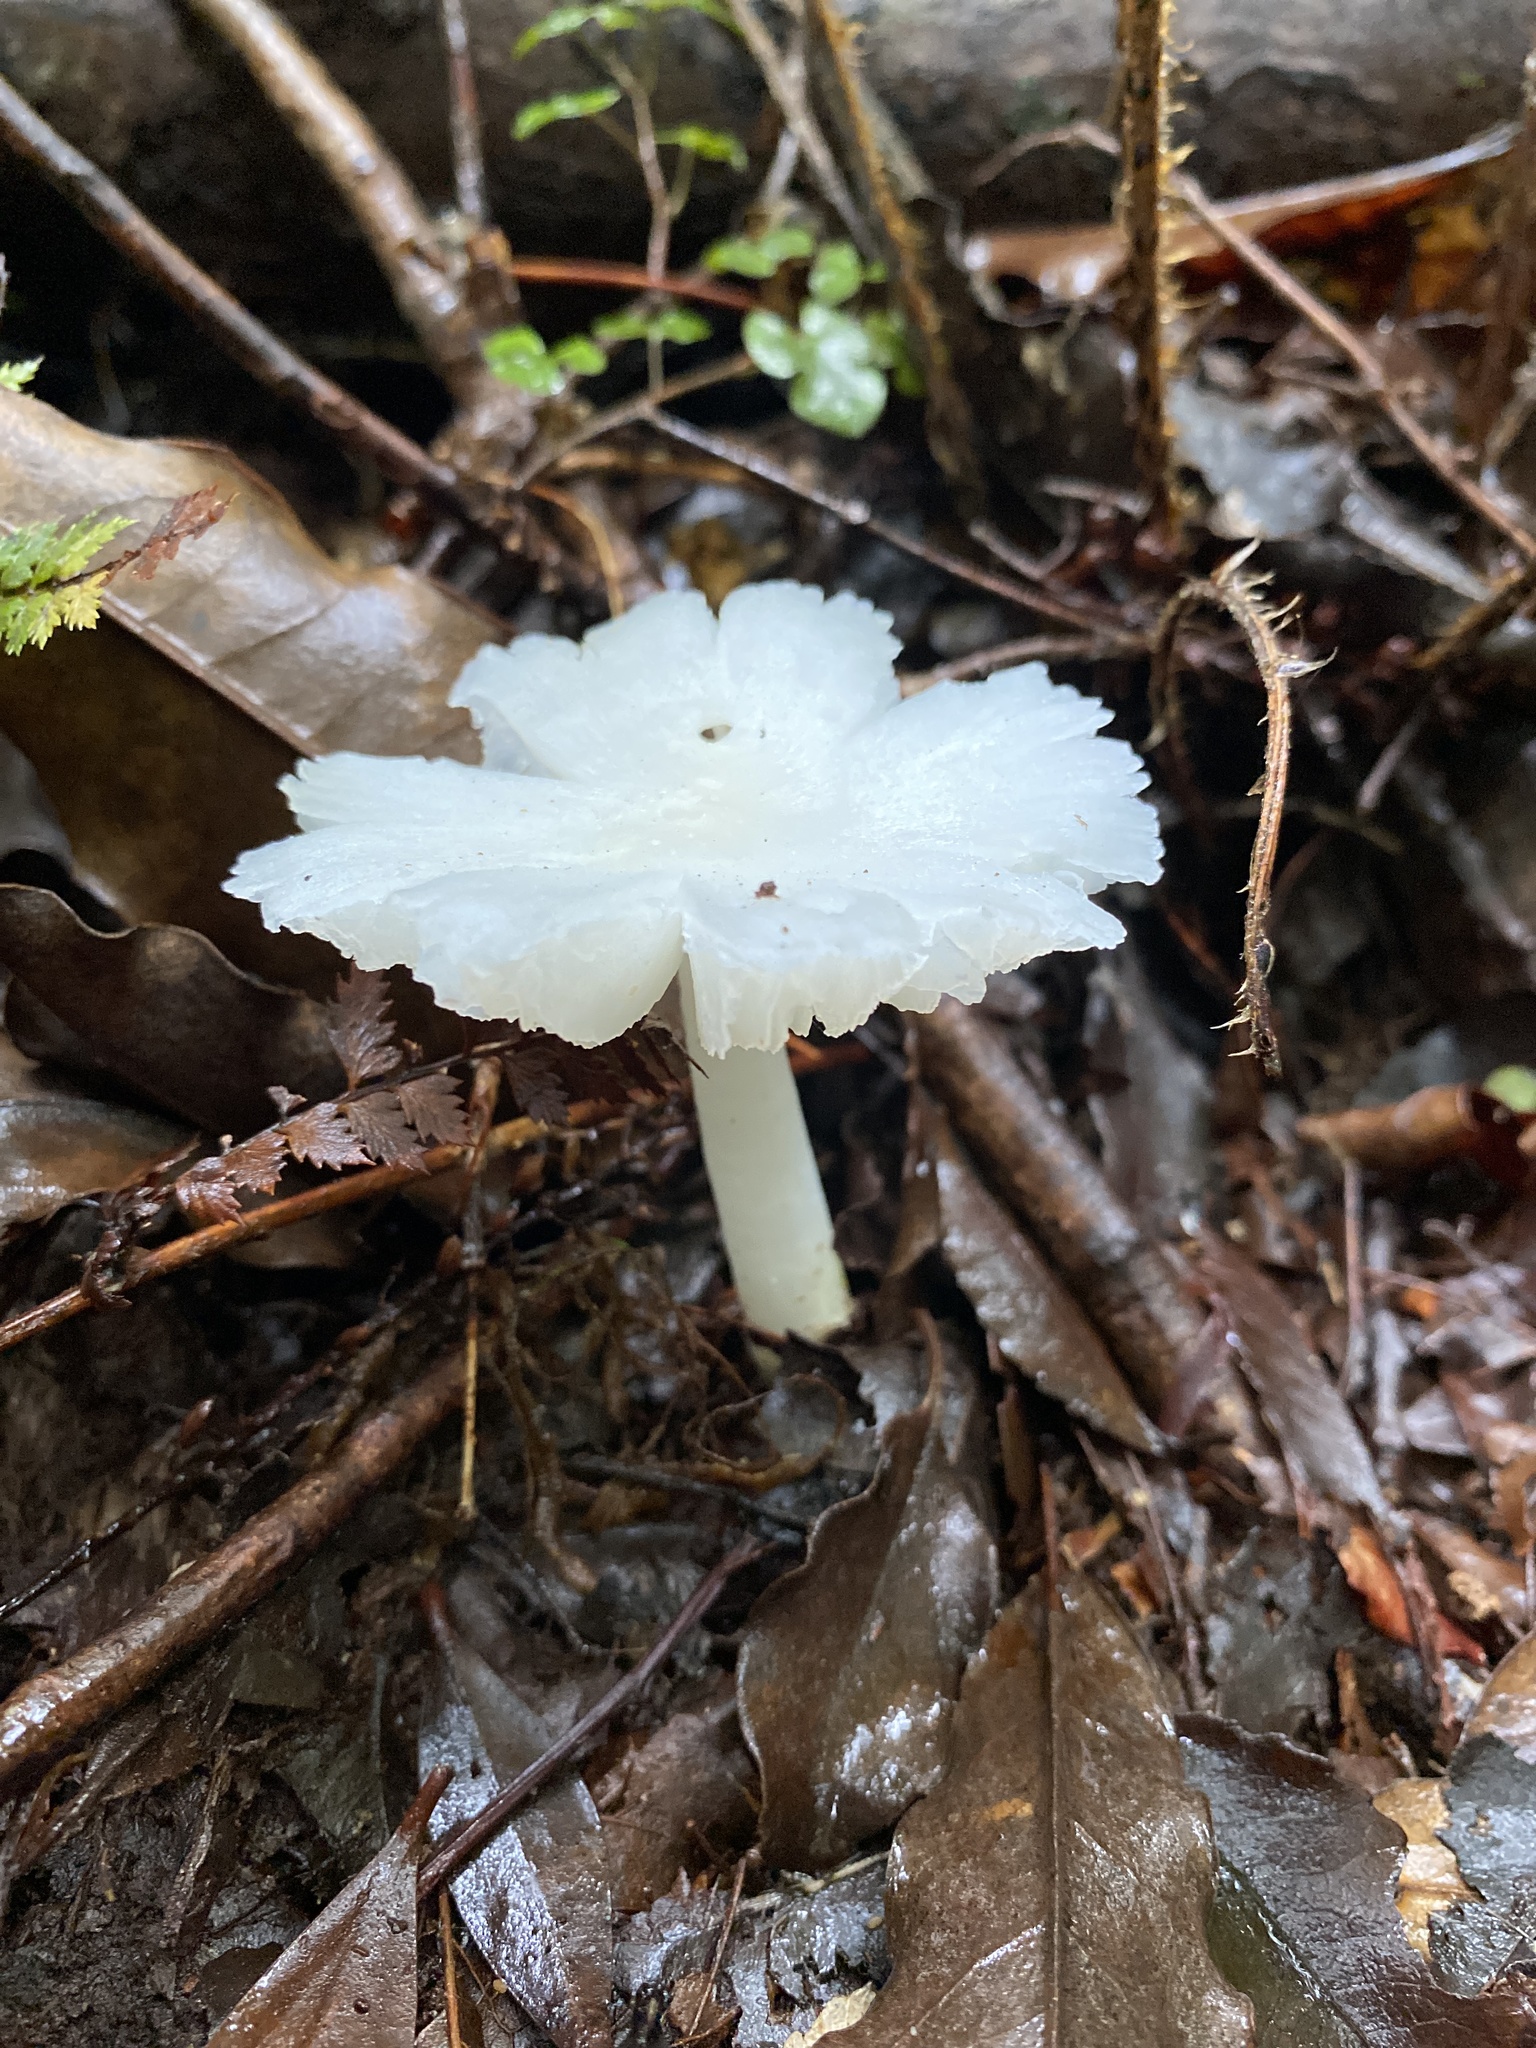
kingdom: Fungi
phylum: Basidiomycota
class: Agaricomycetes
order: Agaricales
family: Hygrophoraceae
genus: Humidicutis
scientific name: Humidicutis mavis
